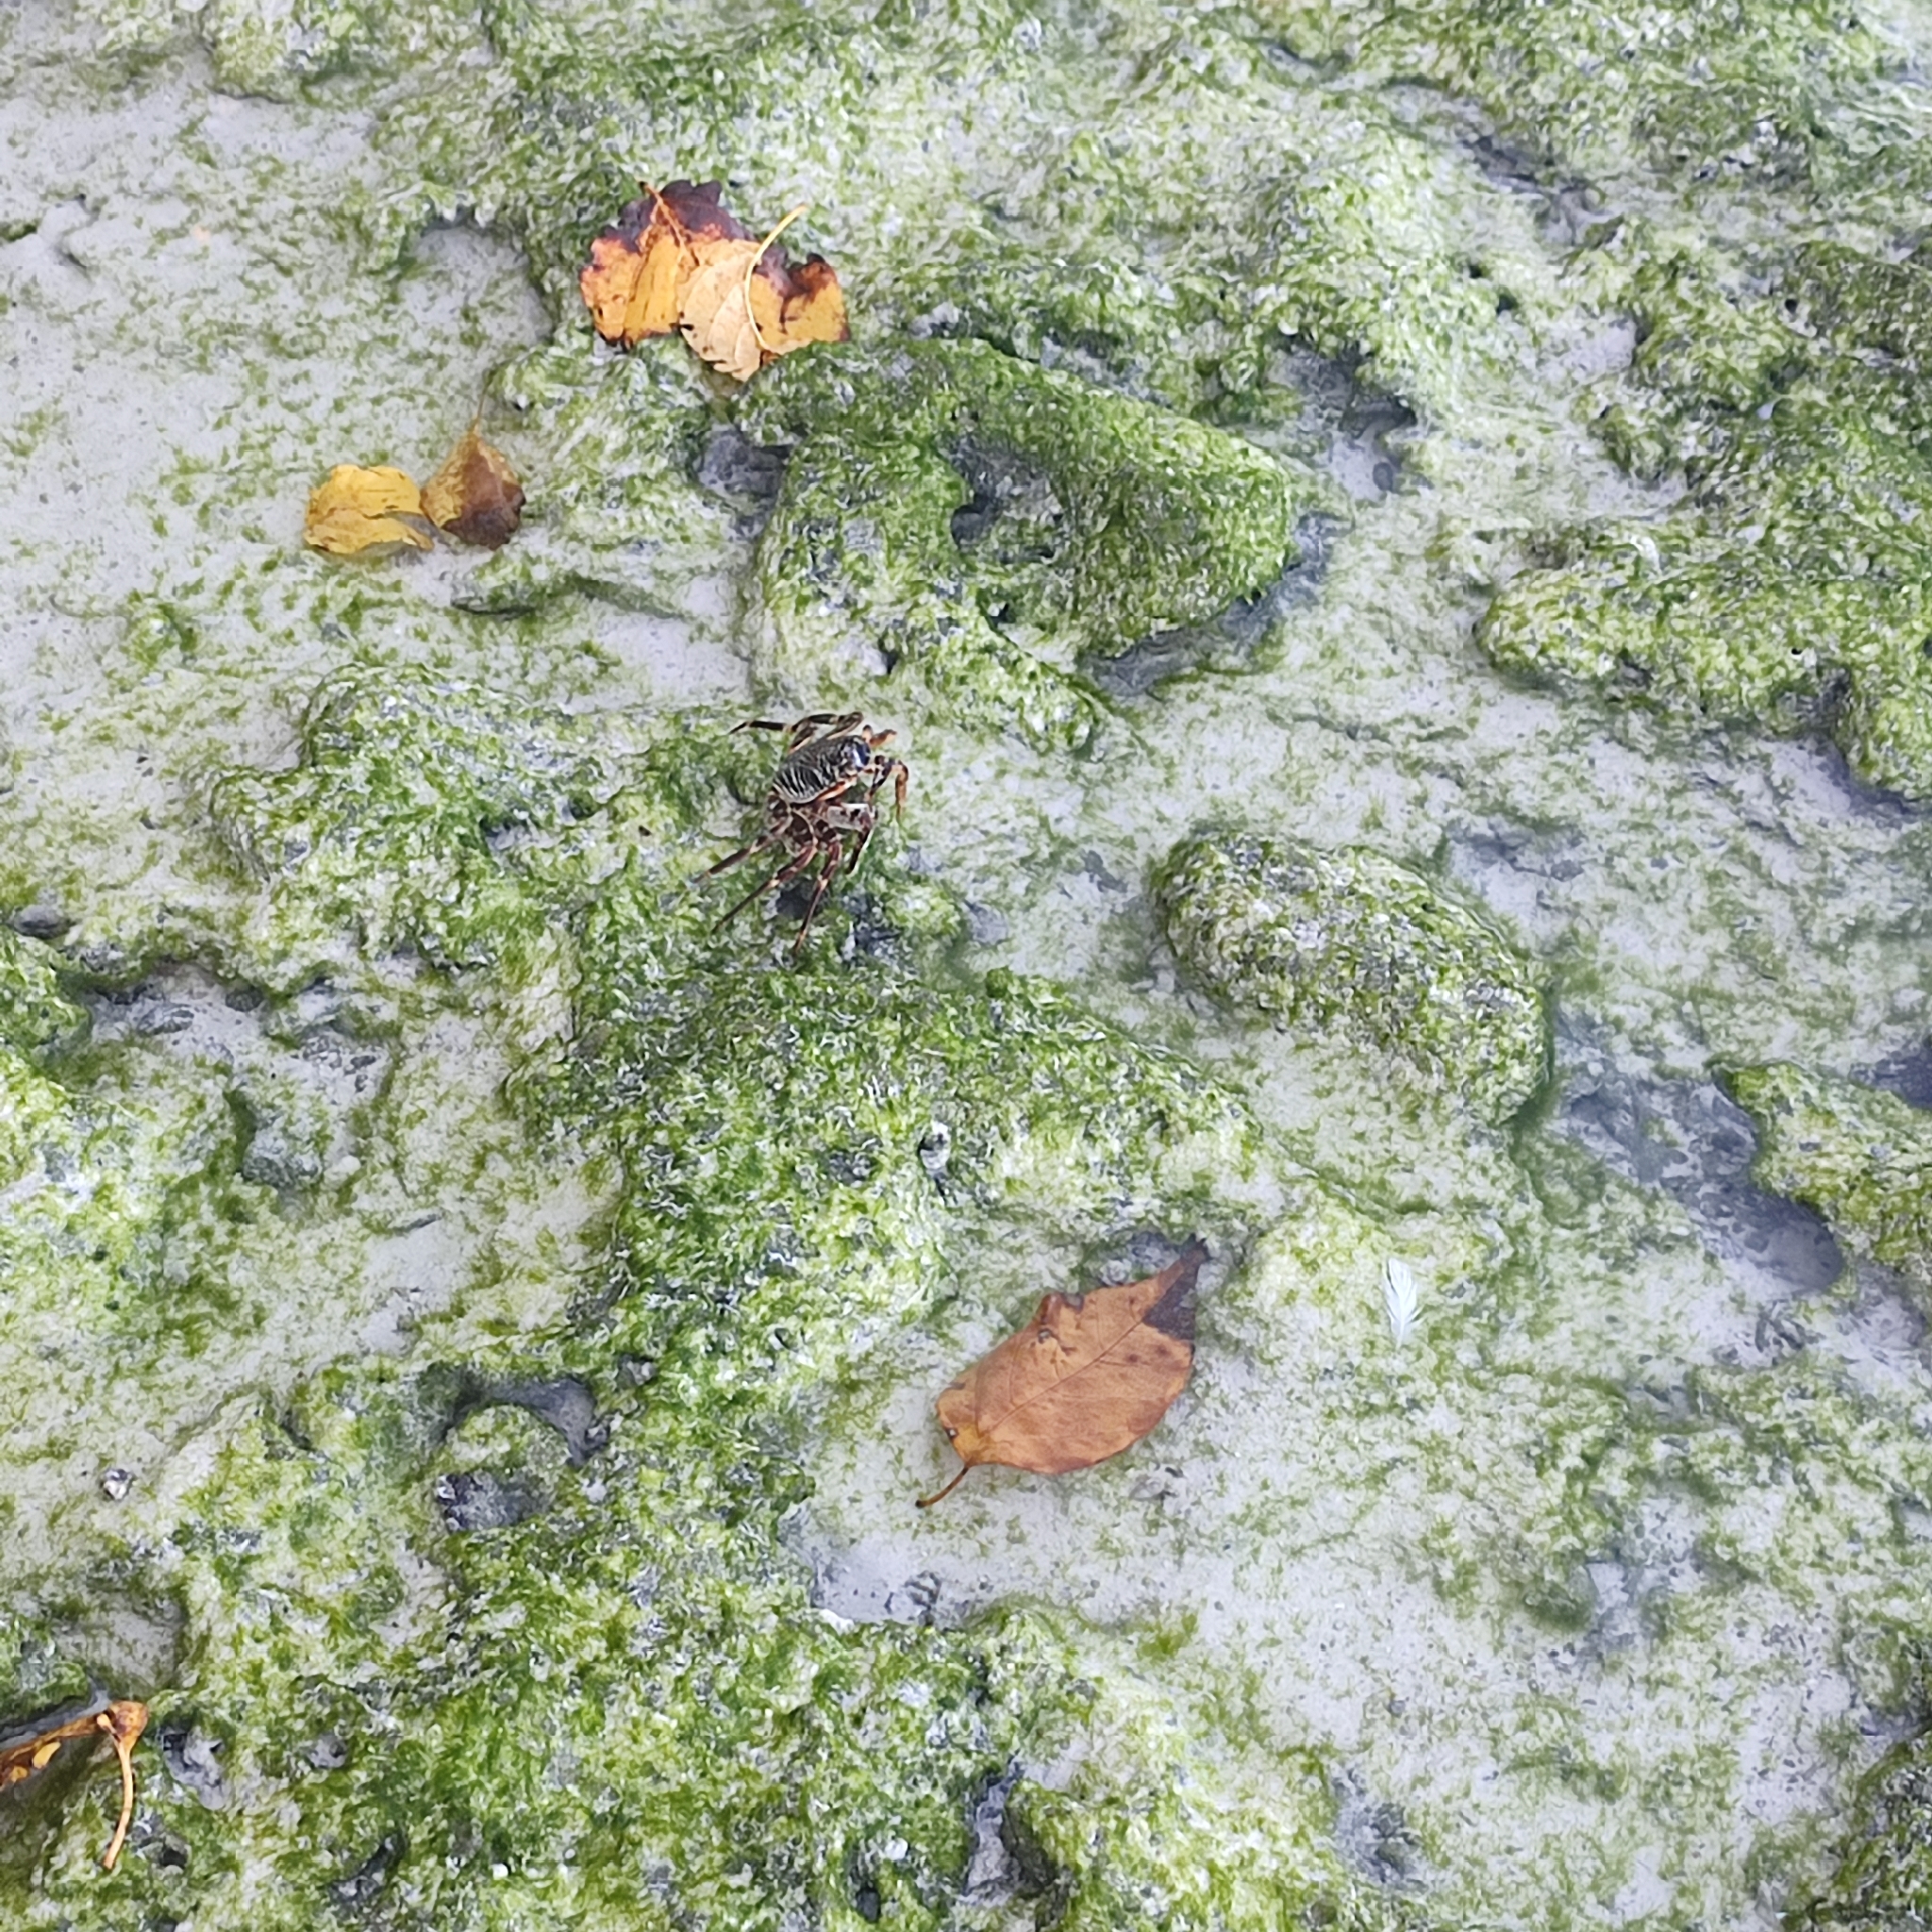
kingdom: Animalia
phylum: Arthropoda
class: Malacostraca
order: Decapoda
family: Grapsidae
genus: Grapsus
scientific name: Grapsus tenuicrustatus
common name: Natal lightfoot crab
